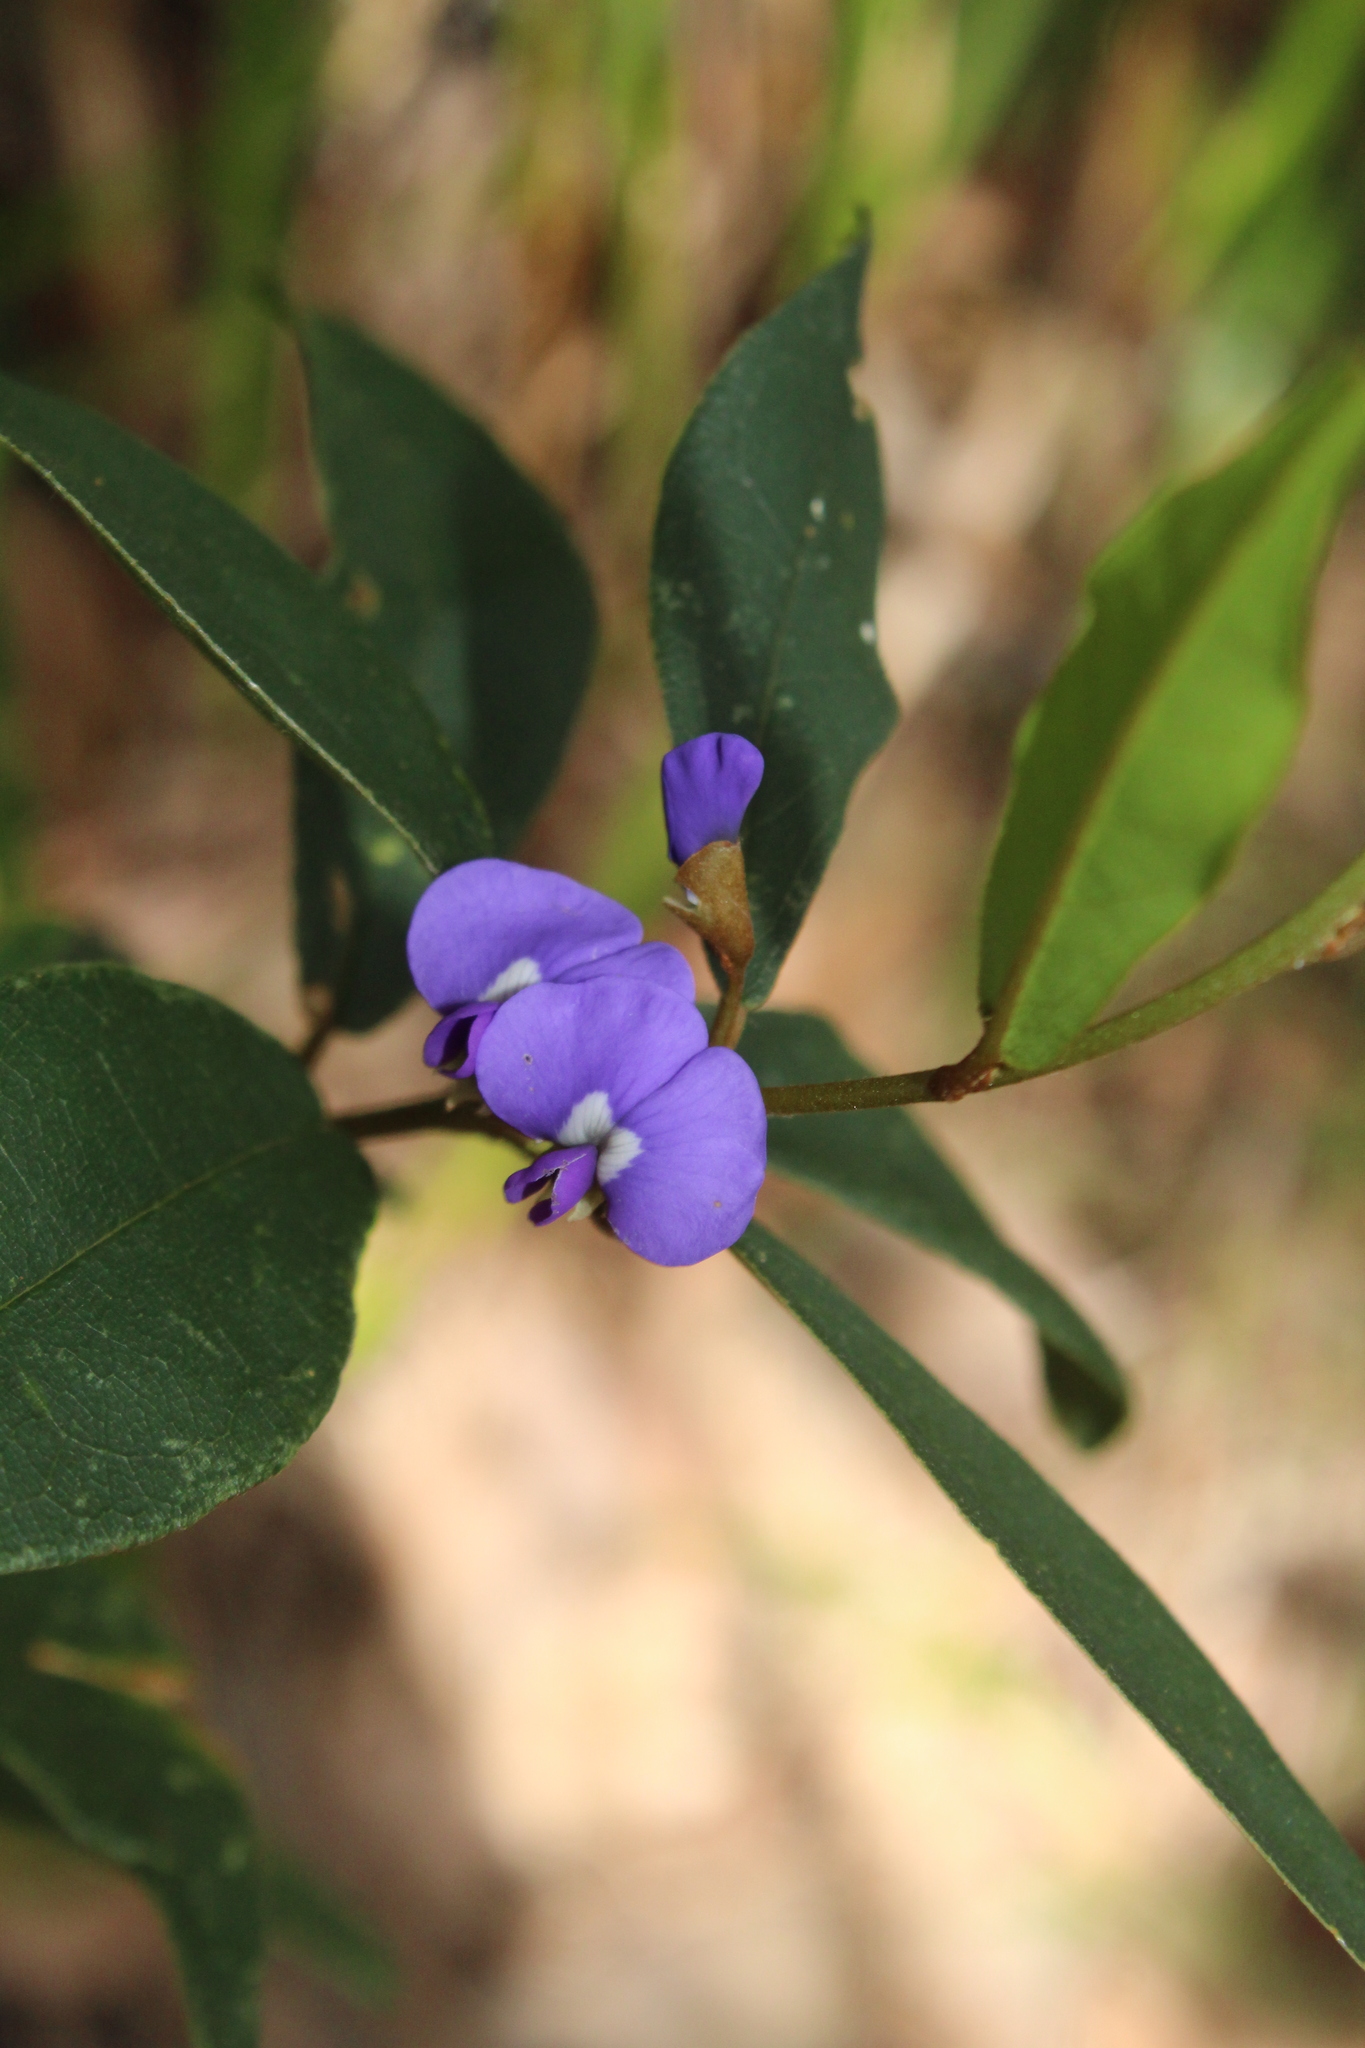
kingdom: Plantae
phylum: Tracheophyta
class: Magnoliopsida
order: Fabales
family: Fabaceae
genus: Hovea
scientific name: Hovea elliptica
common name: Tree hovea
